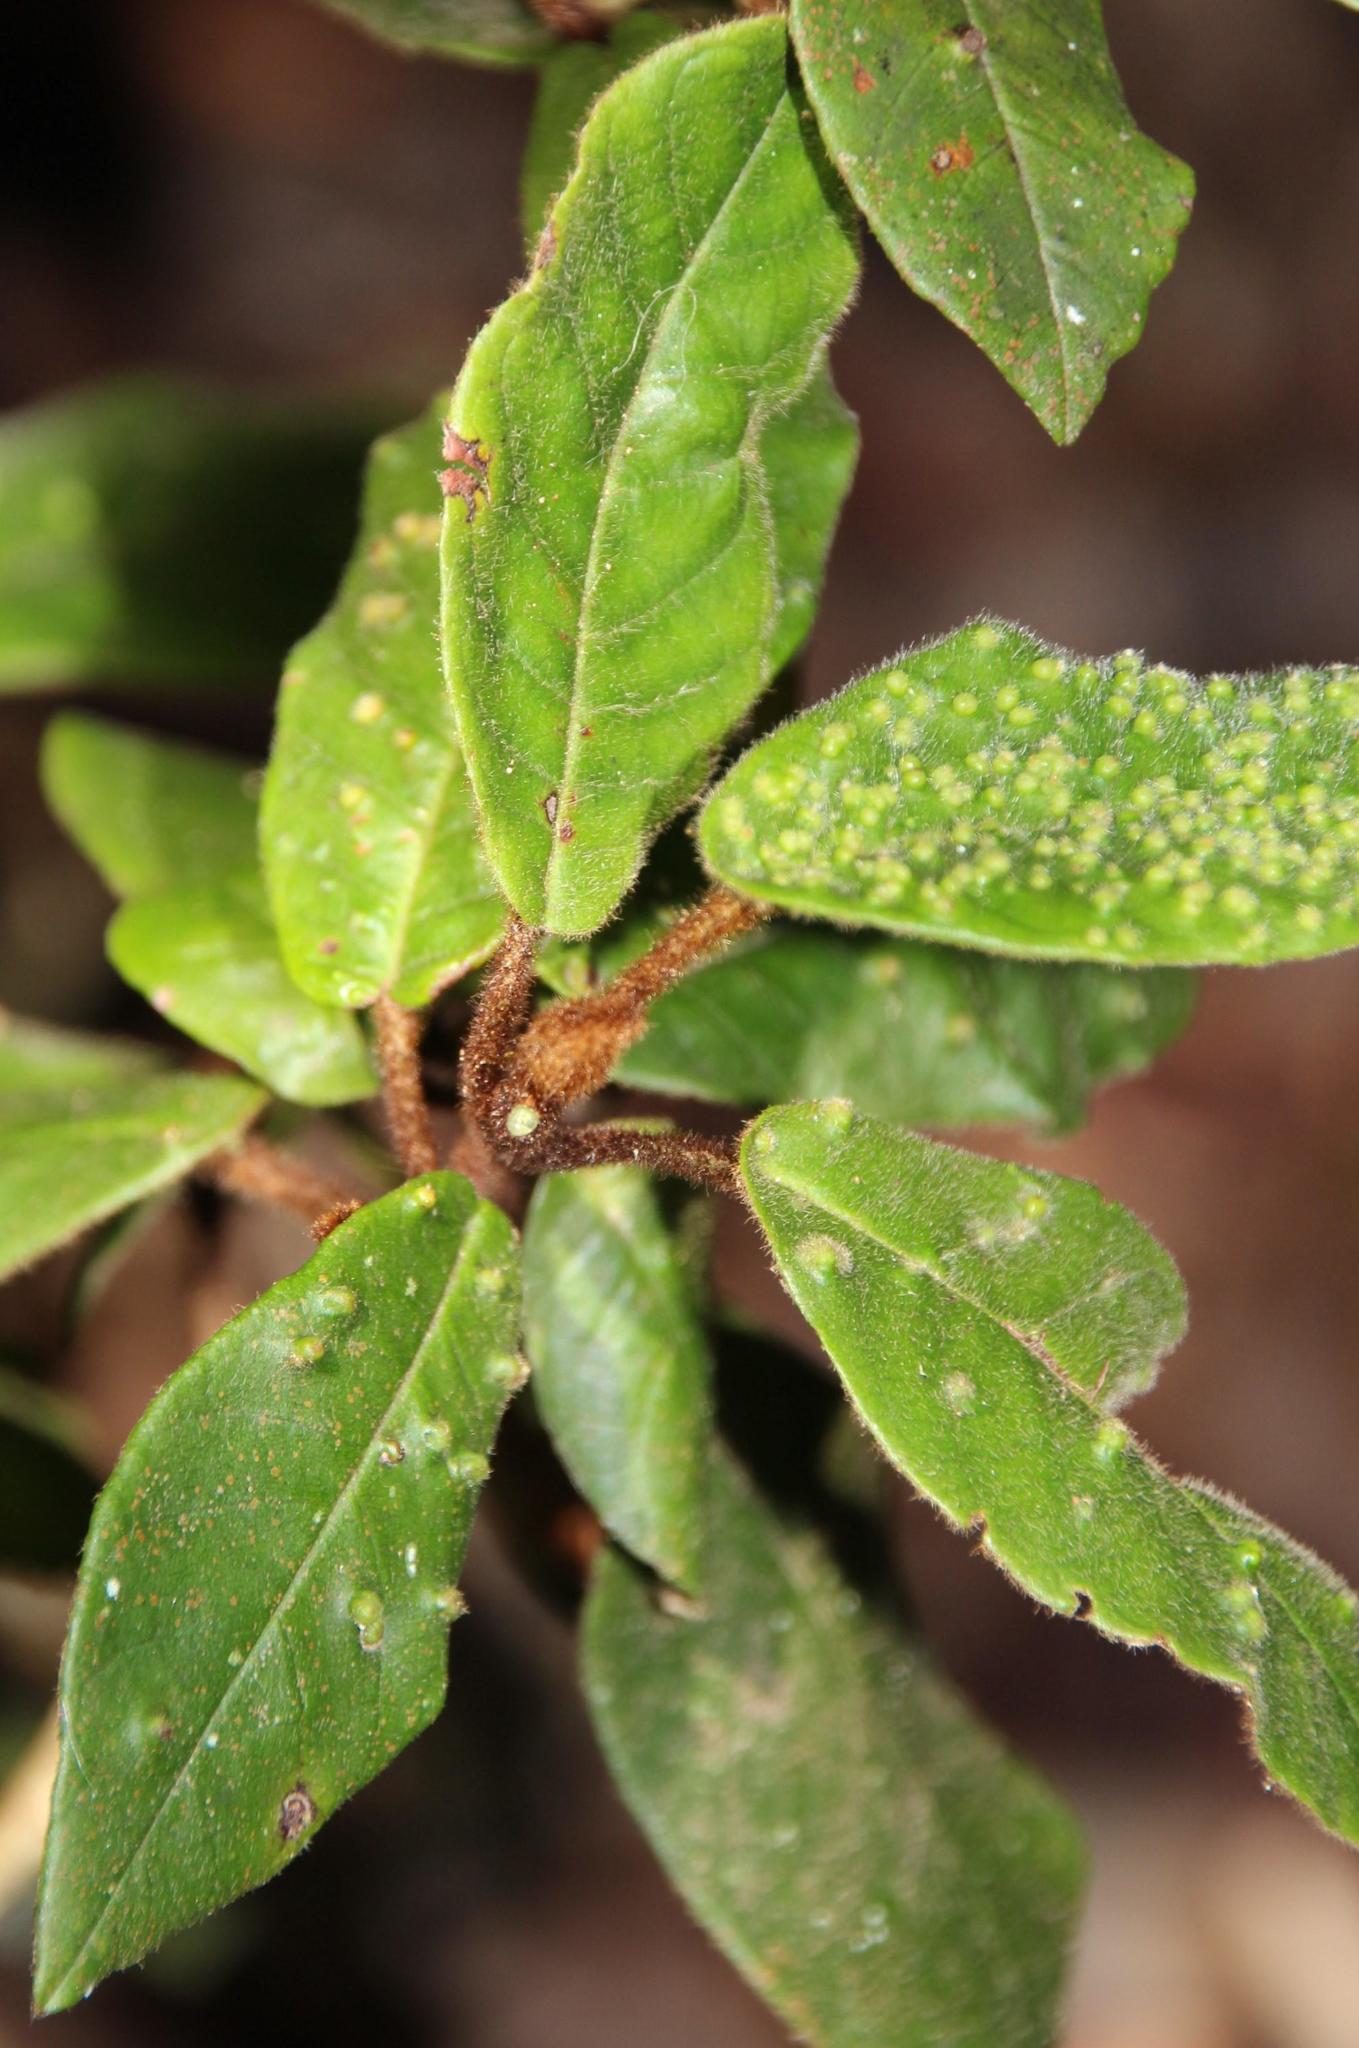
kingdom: Plantae
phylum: Tracheophyta
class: Magnoliopsida
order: Saxifragales
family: Hamamelidaceae
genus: Trichocladus
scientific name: Trichocladus crinitus
